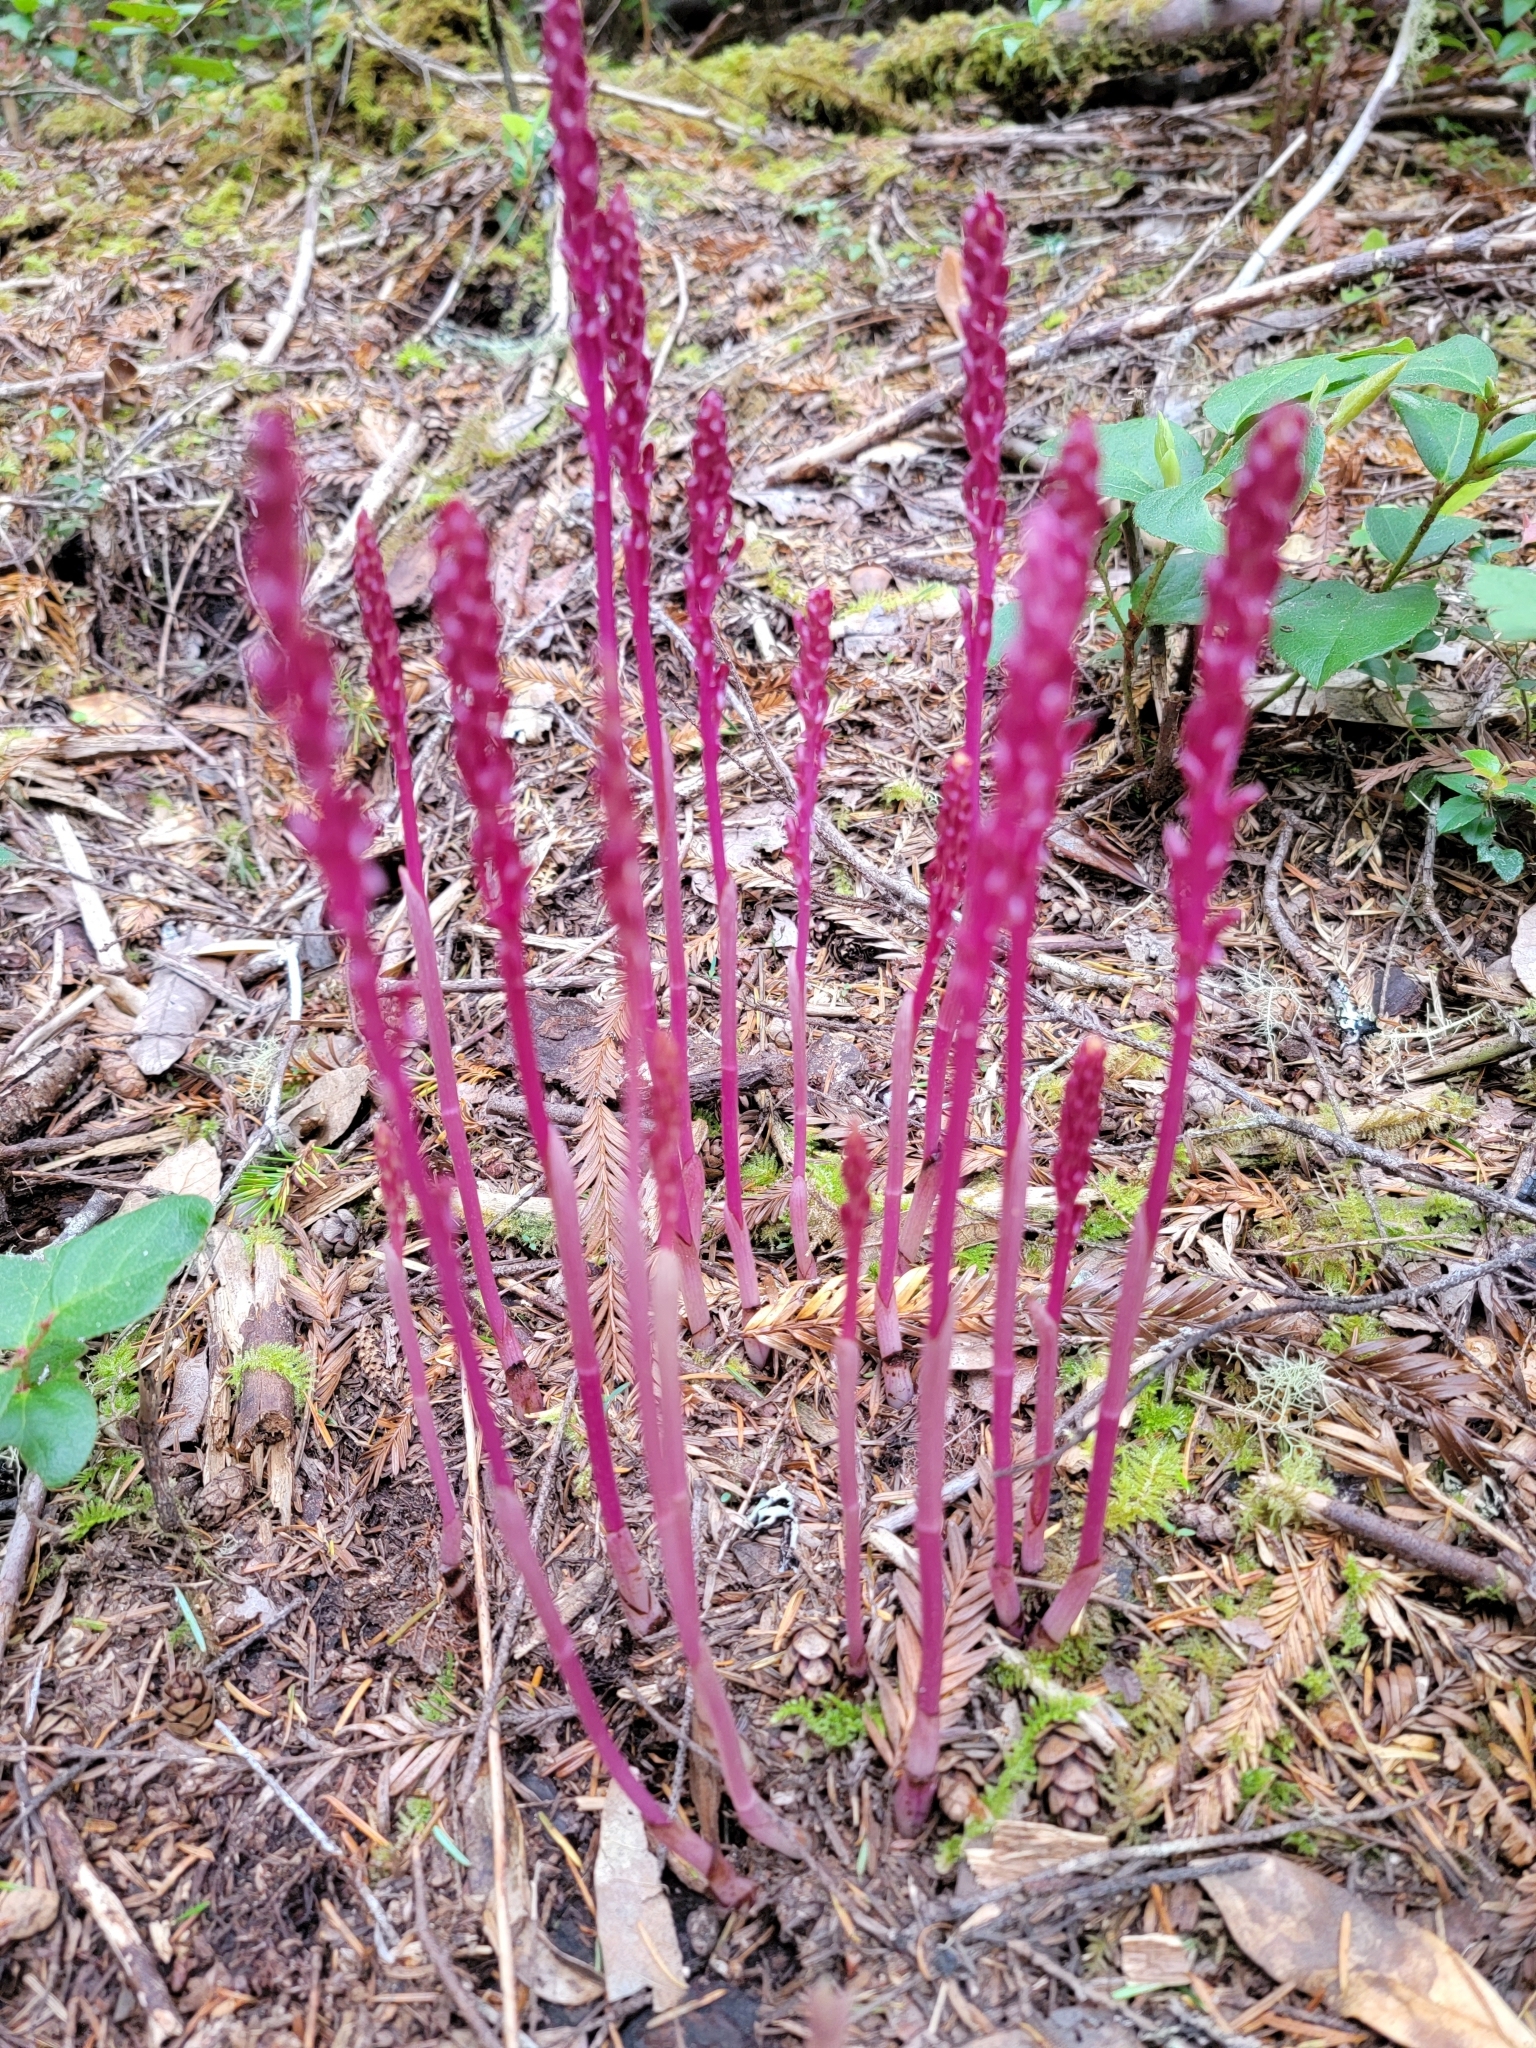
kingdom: Plantae
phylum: Tracheophyta
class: Liliopsida
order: Asparagales
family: Orchidaceae
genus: Corallorhiza
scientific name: Corallorhiza mertensiana
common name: Pacific coralroot
